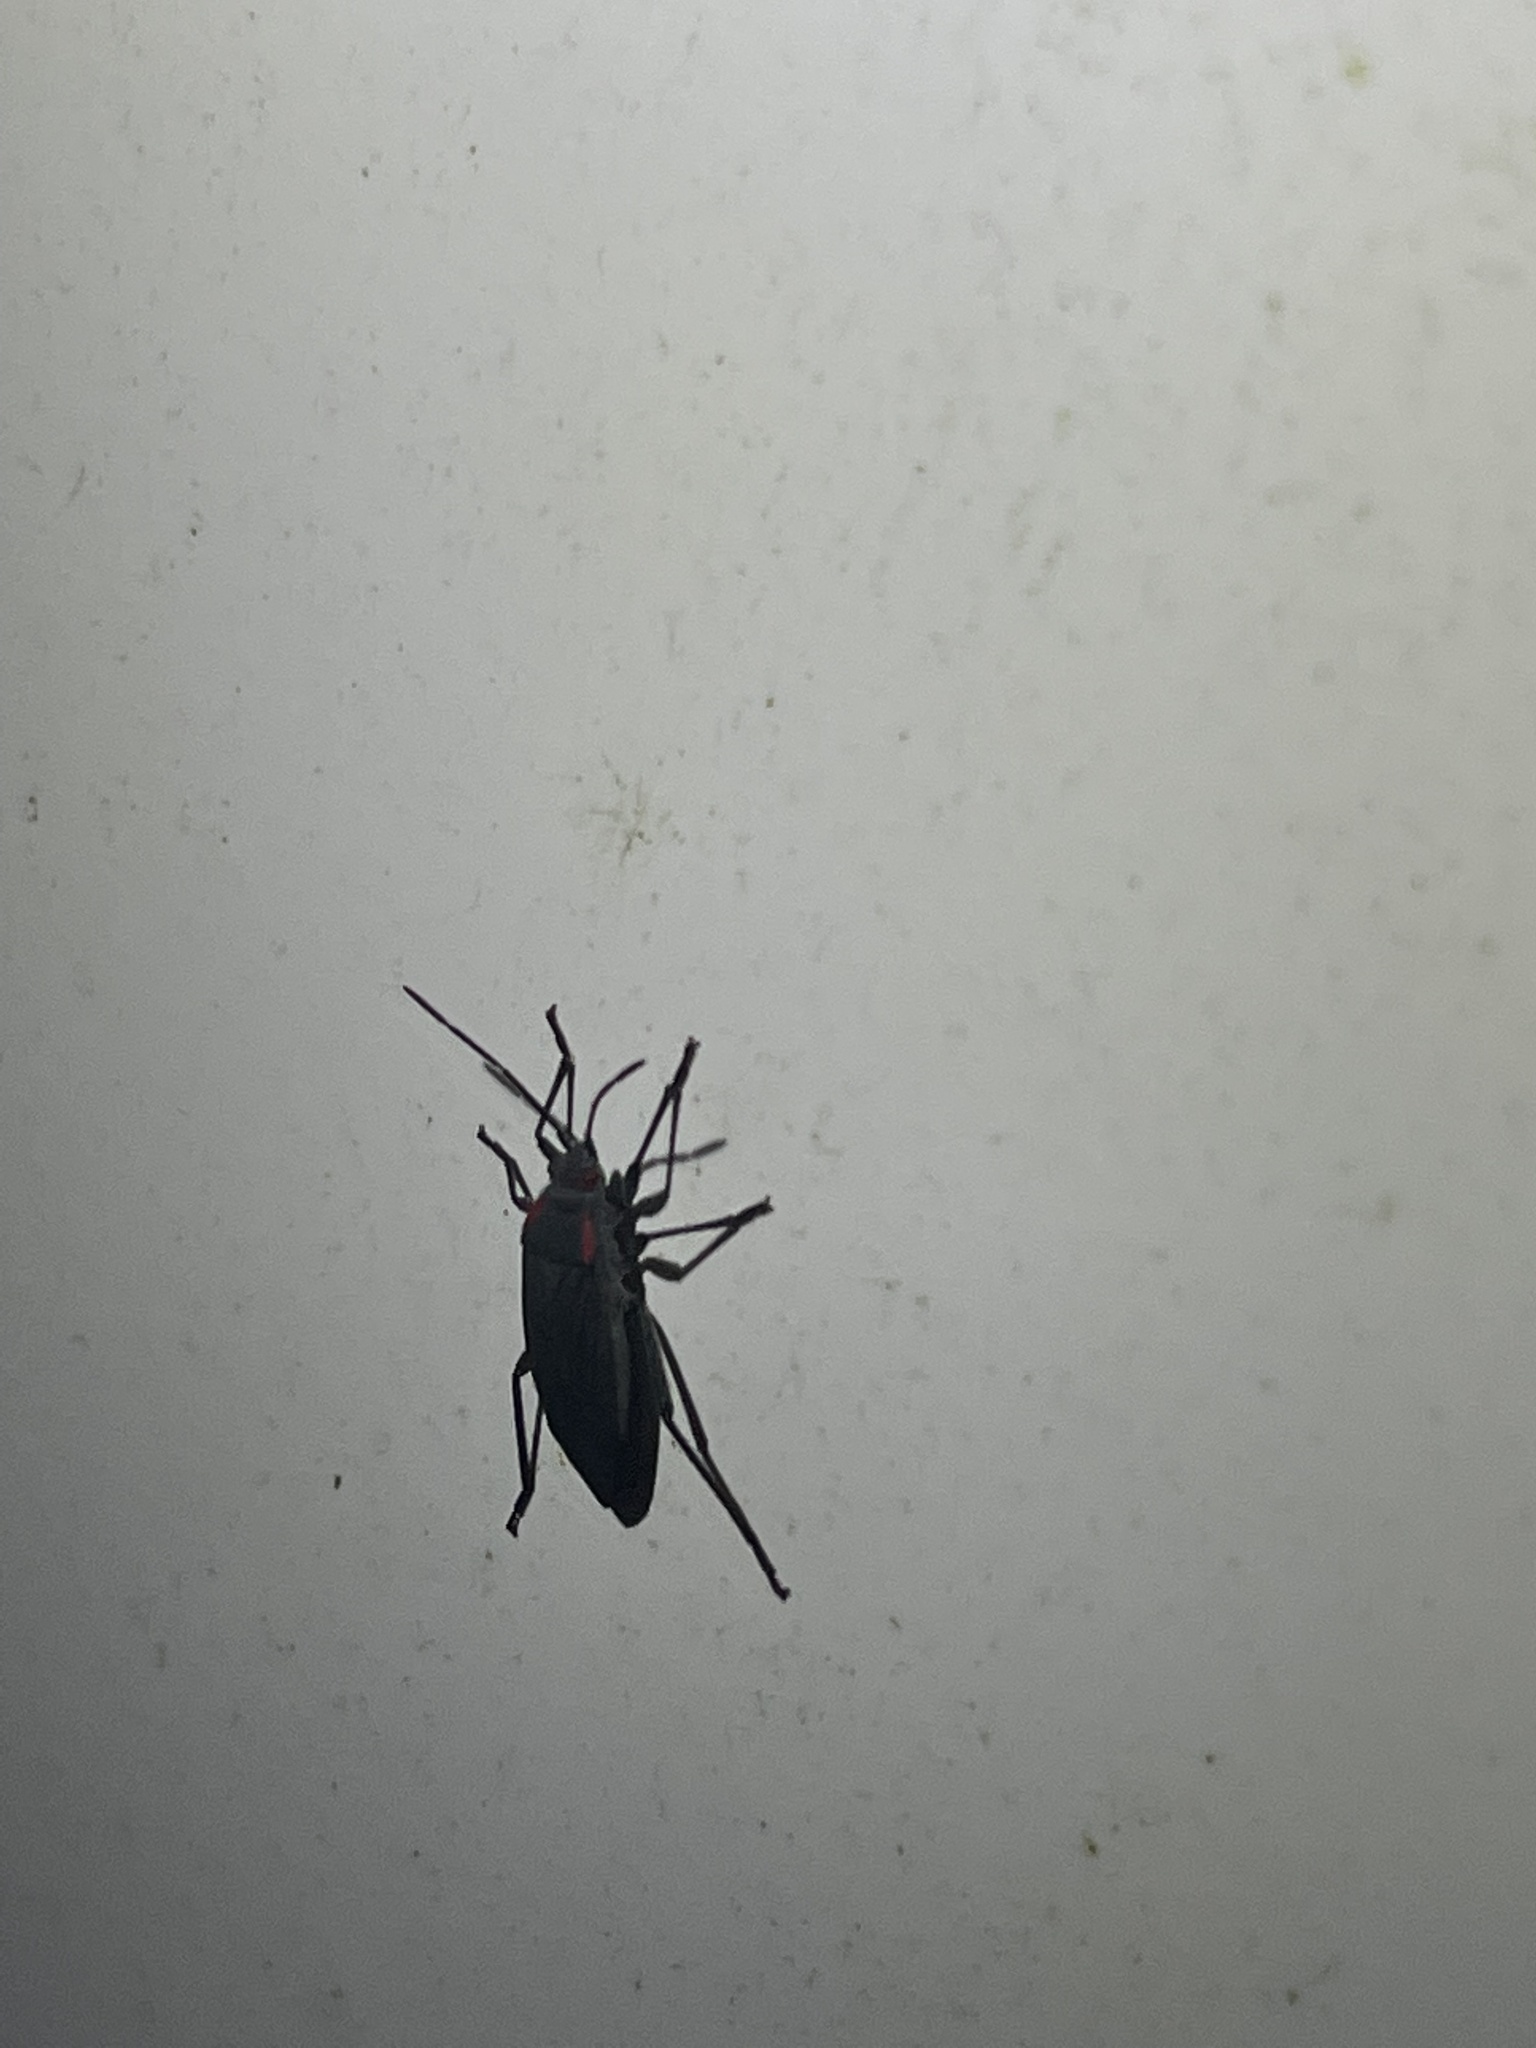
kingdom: Animalia
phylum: Arthropoda
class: Insecta
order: Hemiptera
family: Rhopalidae
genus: Jadera
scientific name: Jadera haematoloma
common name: Red-shouldered bug
